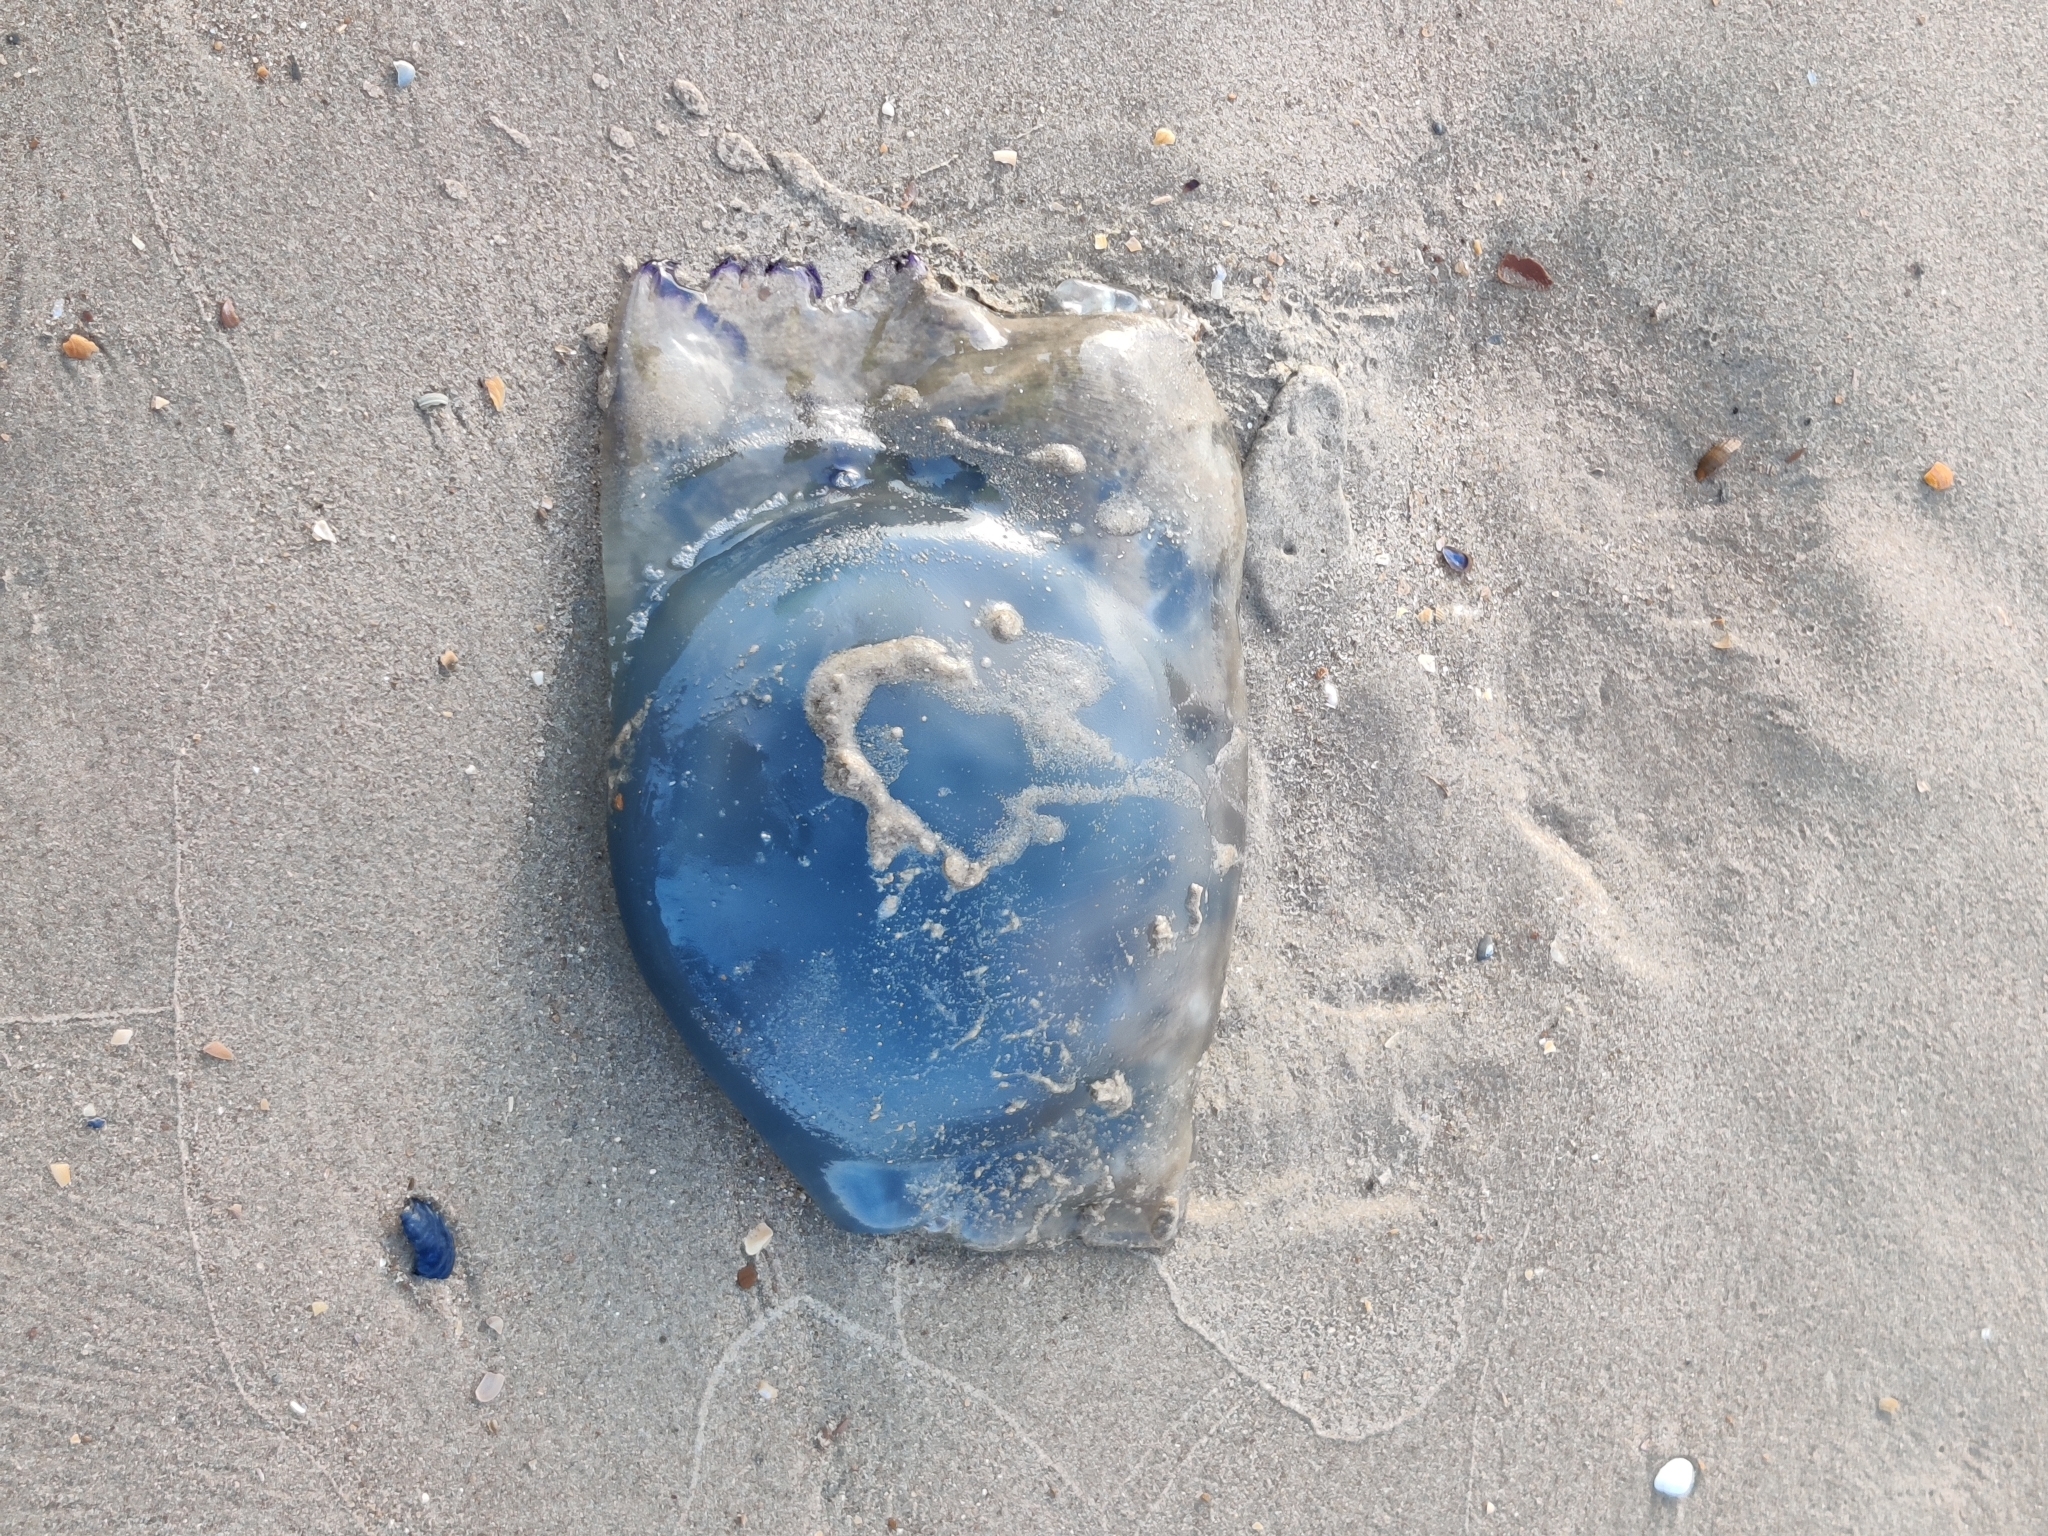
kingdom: Animalia
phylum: Cnidaria
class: Scyphozoa
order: Rhizostomeae
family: Rhizostomatidae
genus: Rhizostoma
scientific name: Rhizostoma octopus
